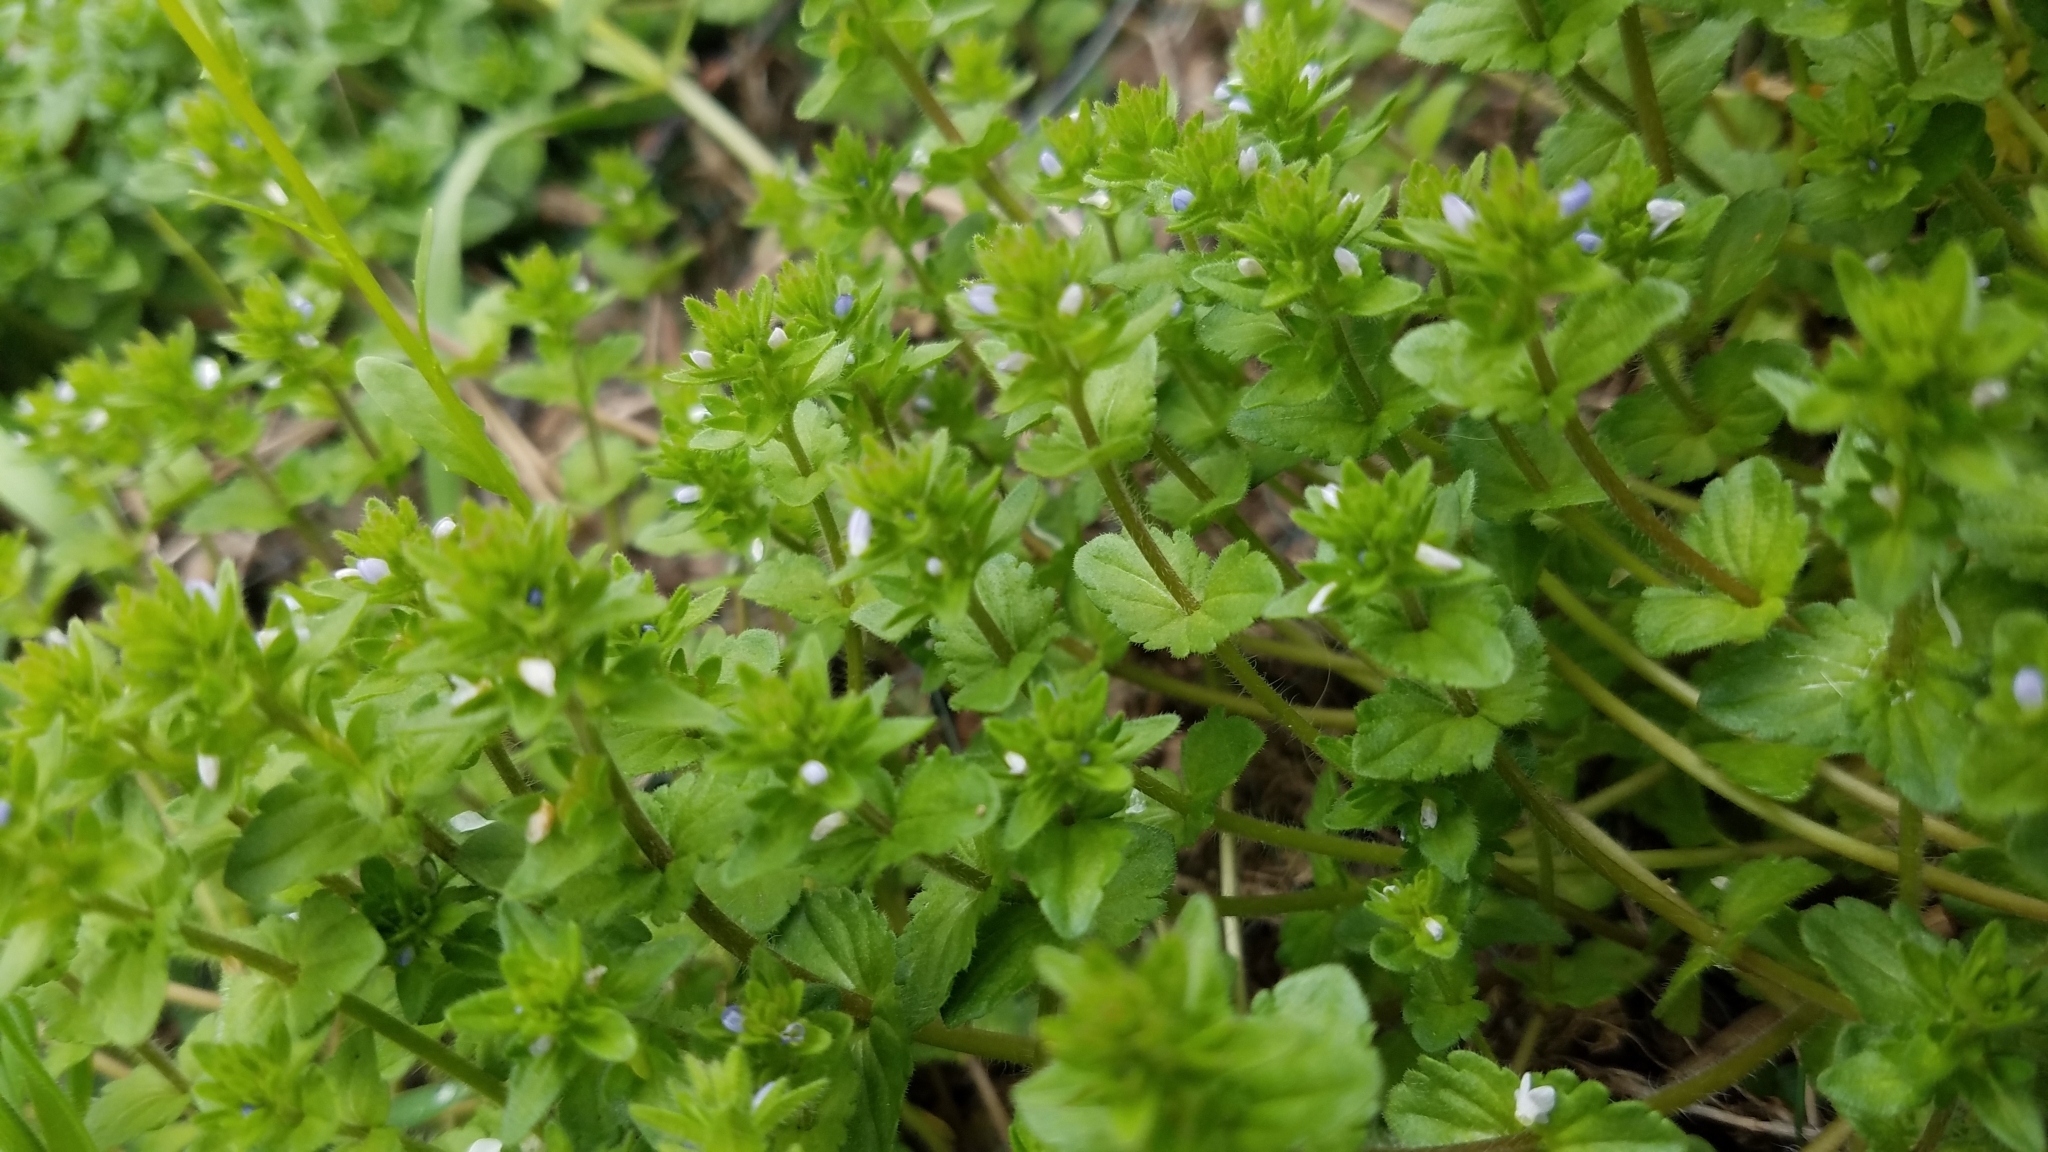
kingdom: Plantae
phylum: Tracheophyta
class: Magnoliopsida
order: Lamiales
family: Plantaginaceae
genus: Veronica
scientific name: Veronica arvensis
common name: Corn speedwell
